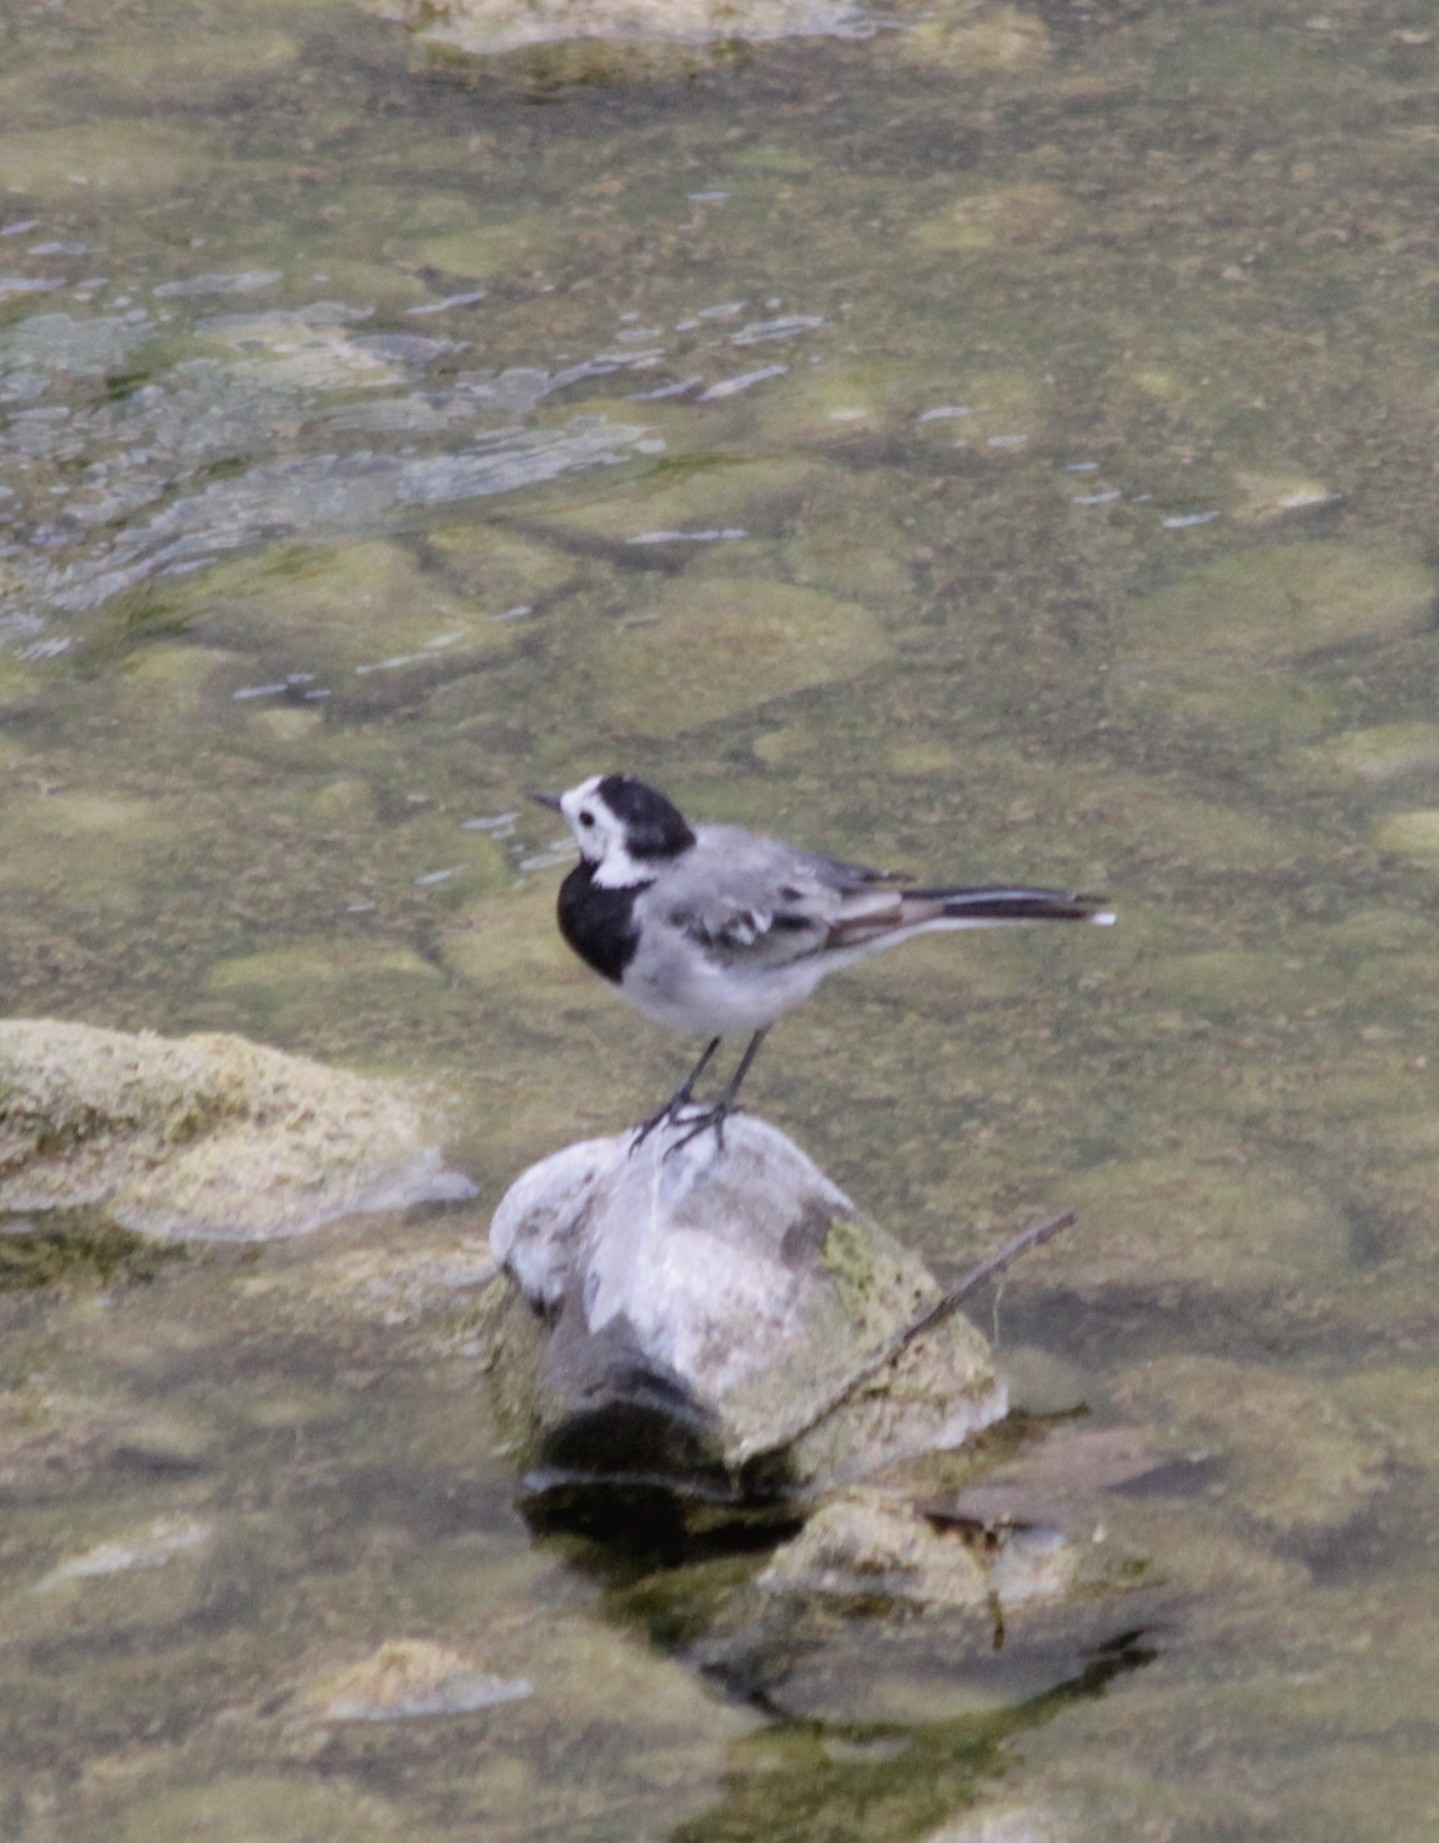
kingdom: Animalia
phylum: Chordata
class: Aves
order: Passeriformes
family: Motacillidae
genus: Motacilla
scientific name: Motacilla alba
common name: White wagtail
